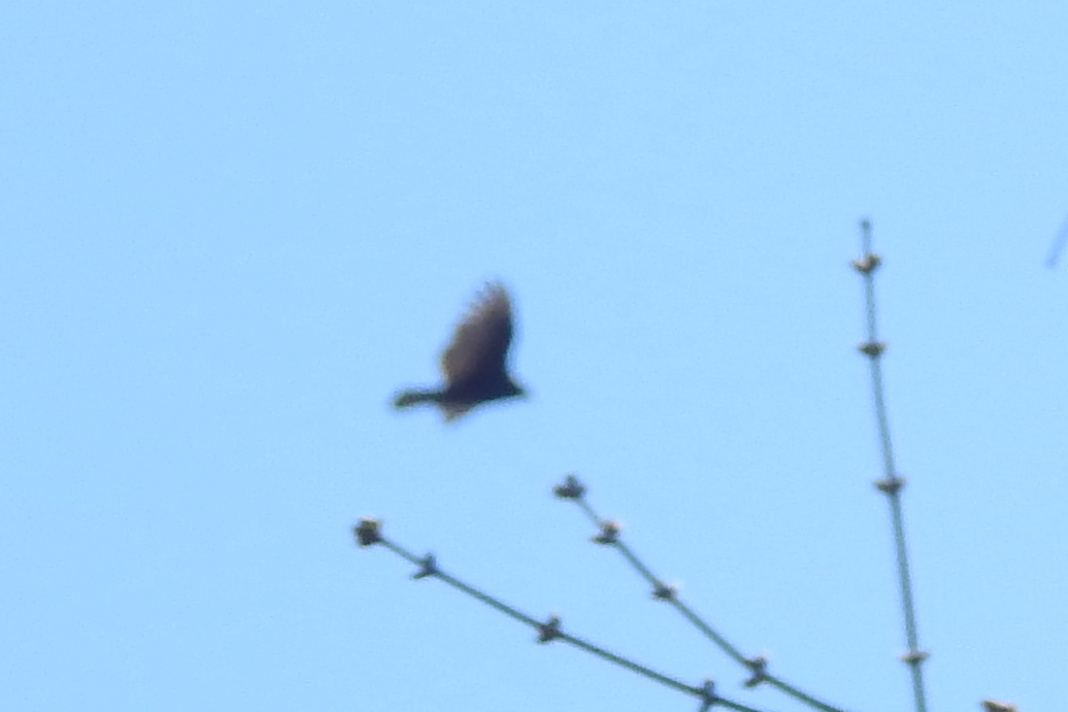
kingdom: Animalia
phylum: Chordata
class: Aves
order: Accipitriformes
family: Cathartidae
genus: Cathartes
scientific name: Cathartes aura
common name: Turkey vulture
